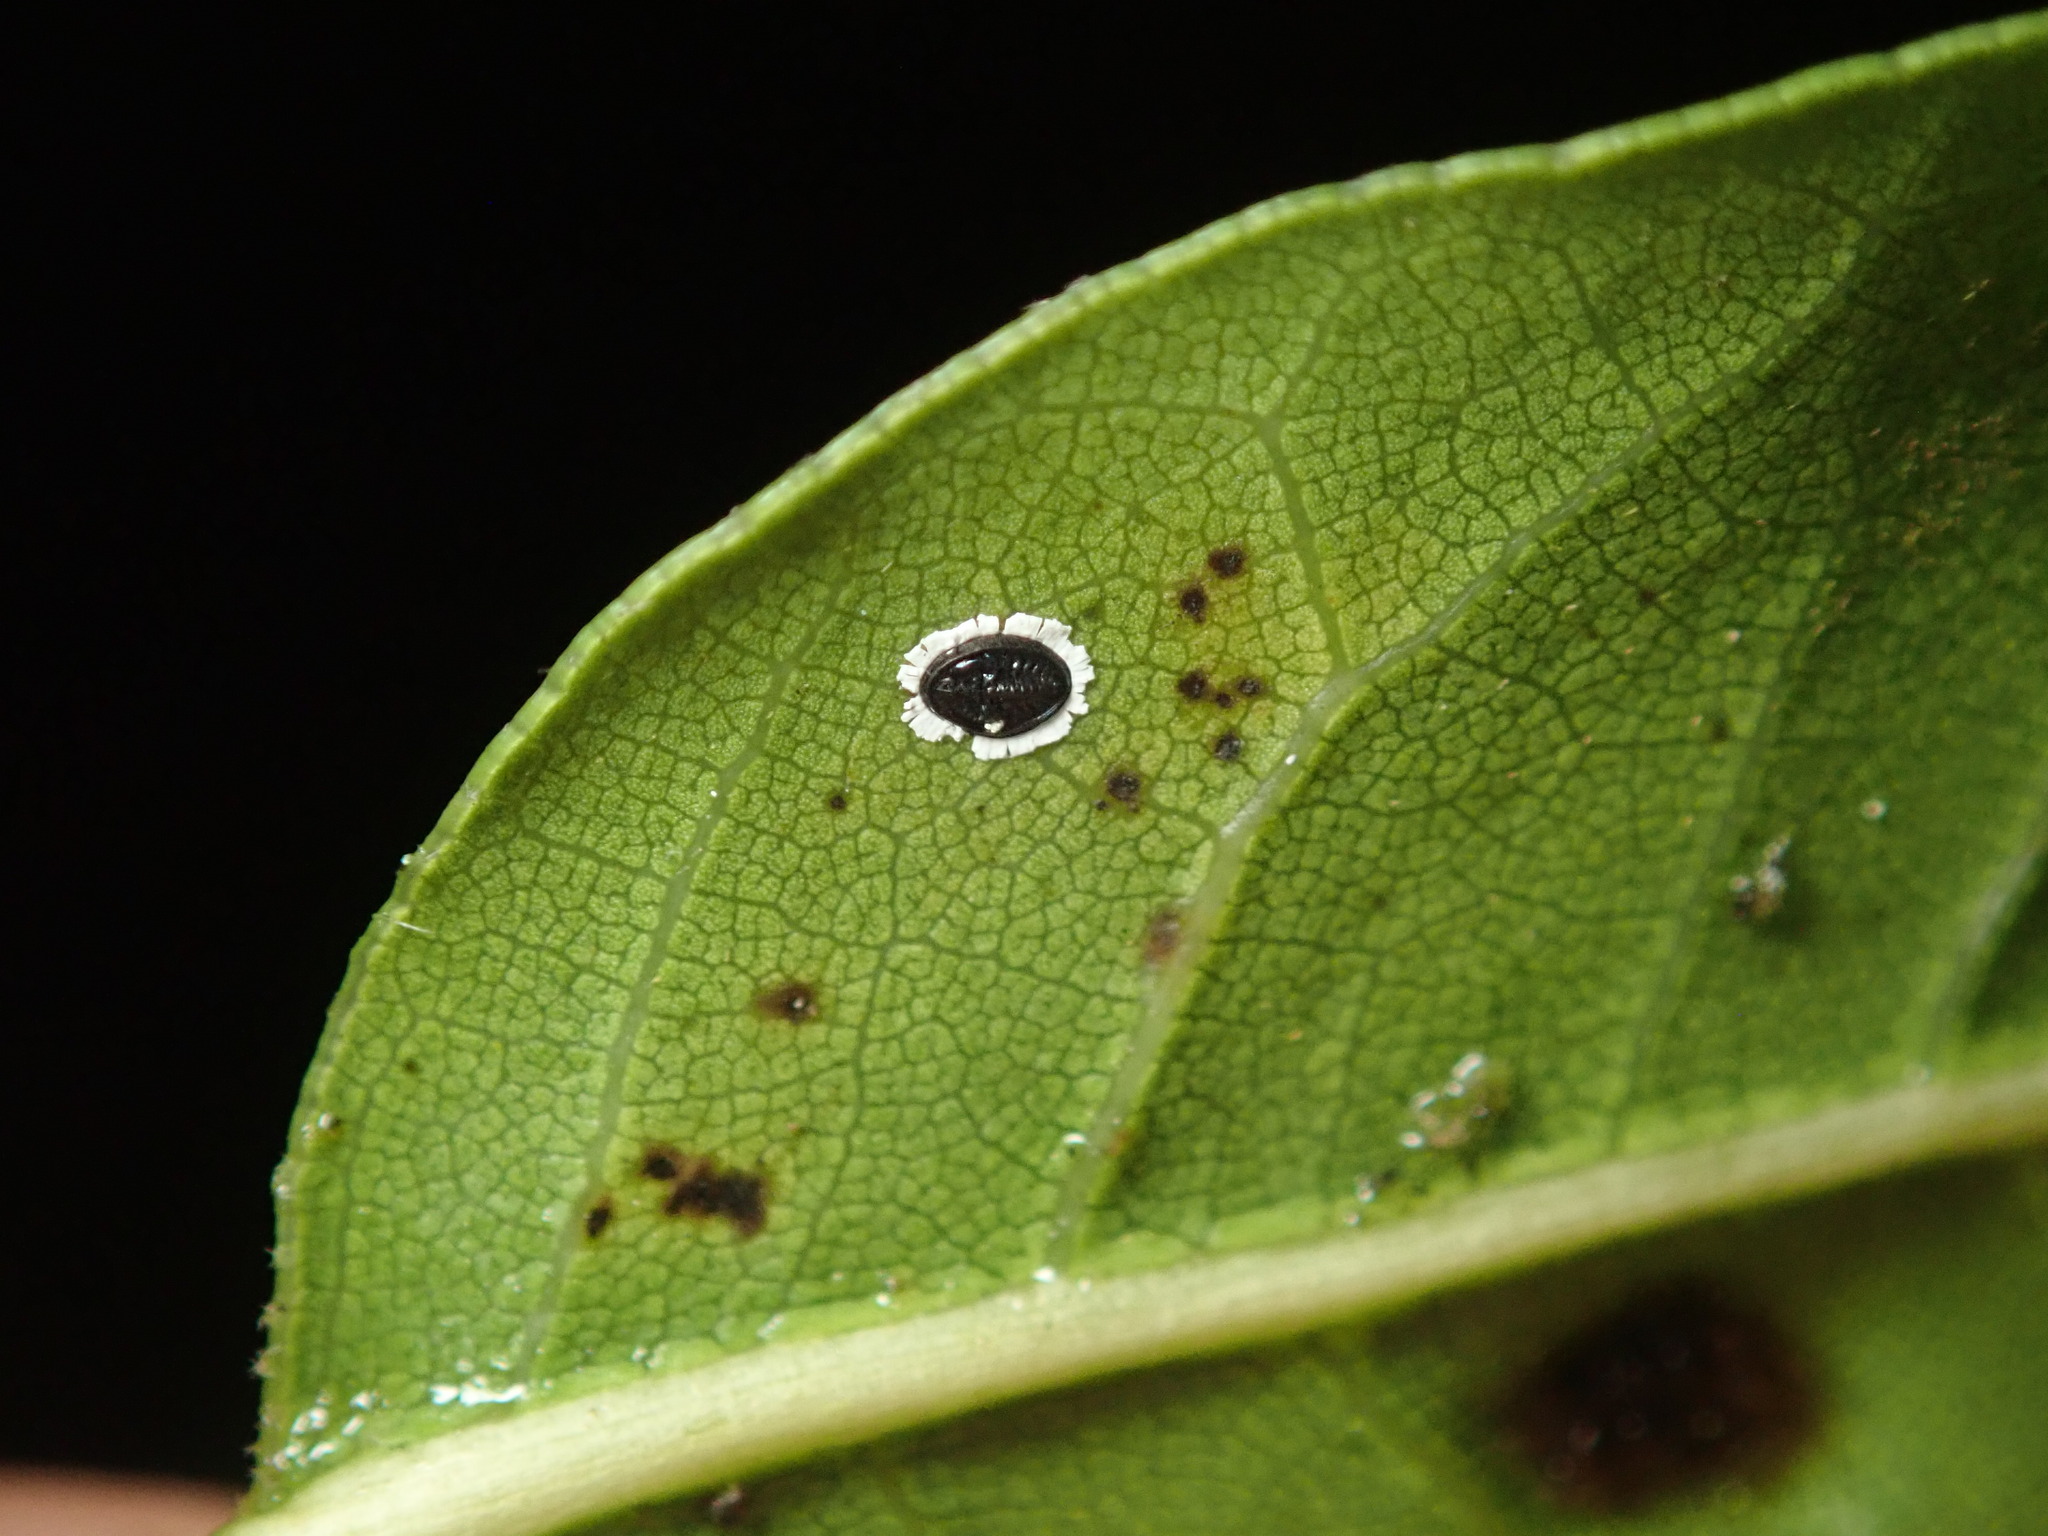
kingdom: Animalia
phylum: Arthropoda
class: Insecta
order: Hemiptera
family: Aleyrodidae
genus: Tetraleurodes
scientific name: Tetraleurodes perileuca
